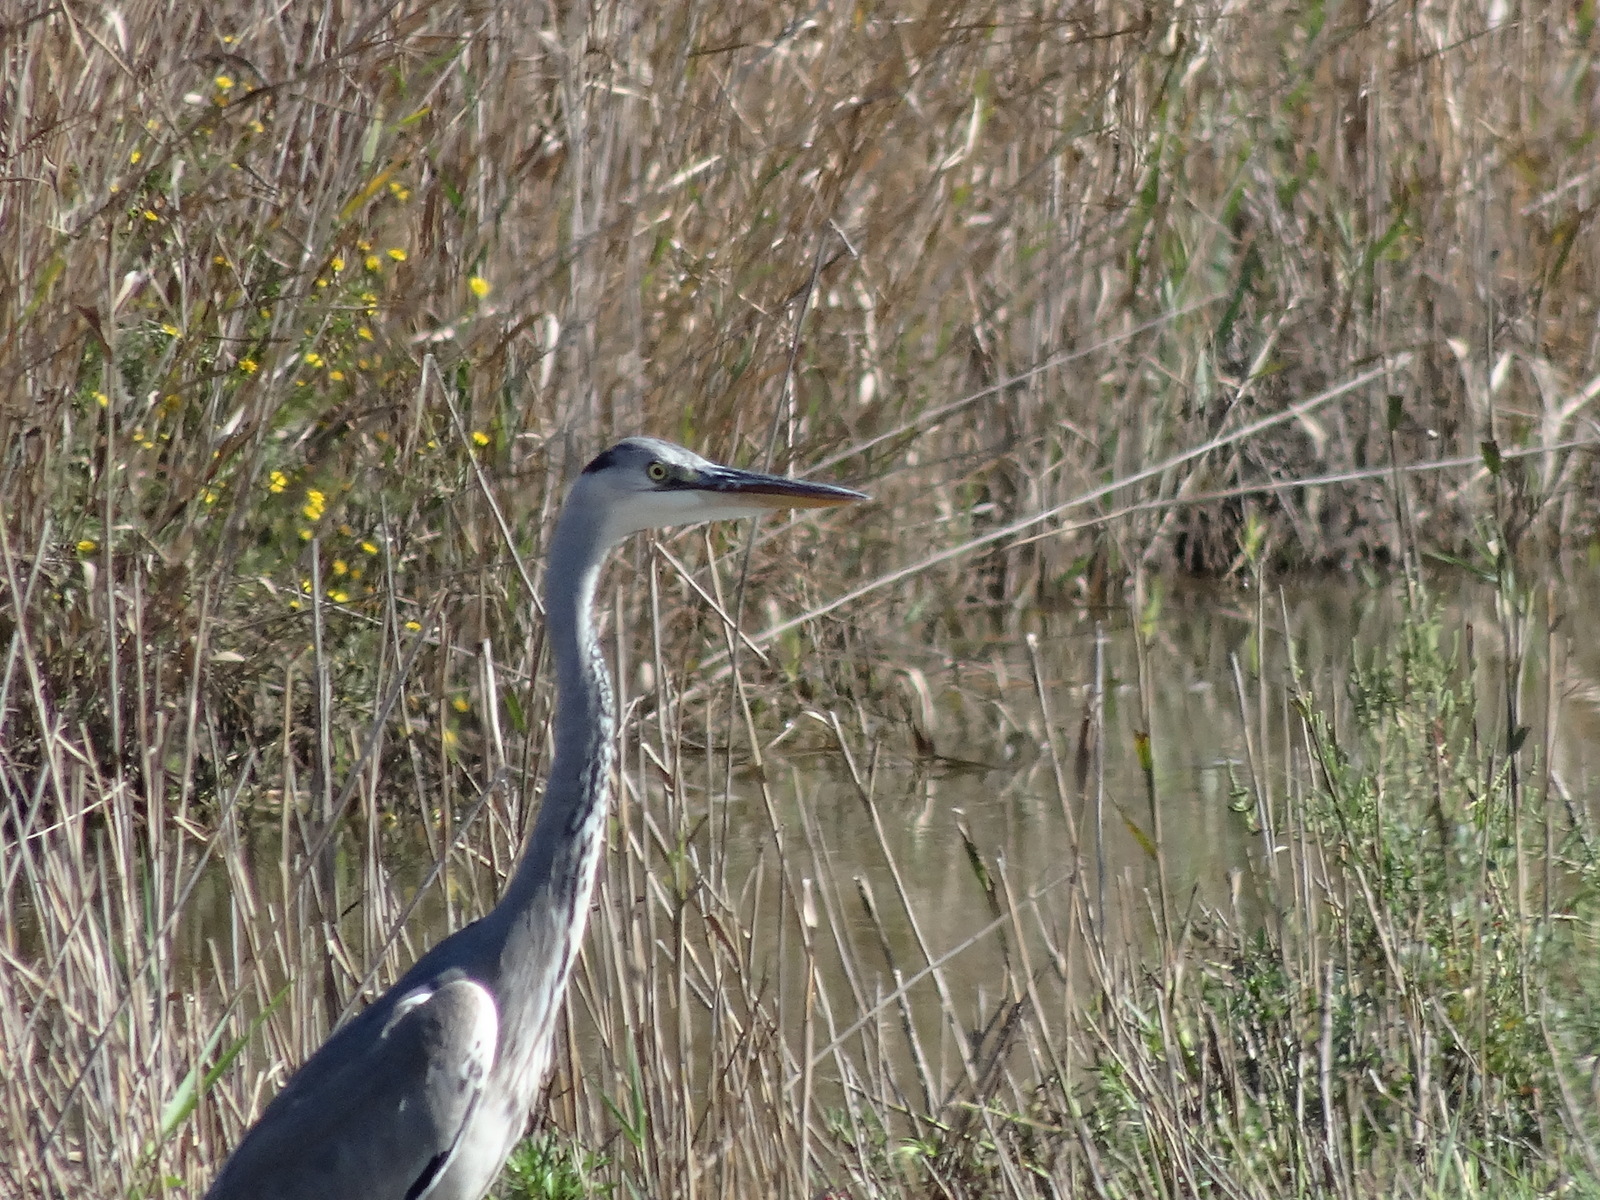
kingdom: Animalia
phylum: Chordata
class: Aves
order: Pelecaniformes
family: Ardeidae
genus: Ardea
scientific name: Ardea cinerea
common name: Grey heron
